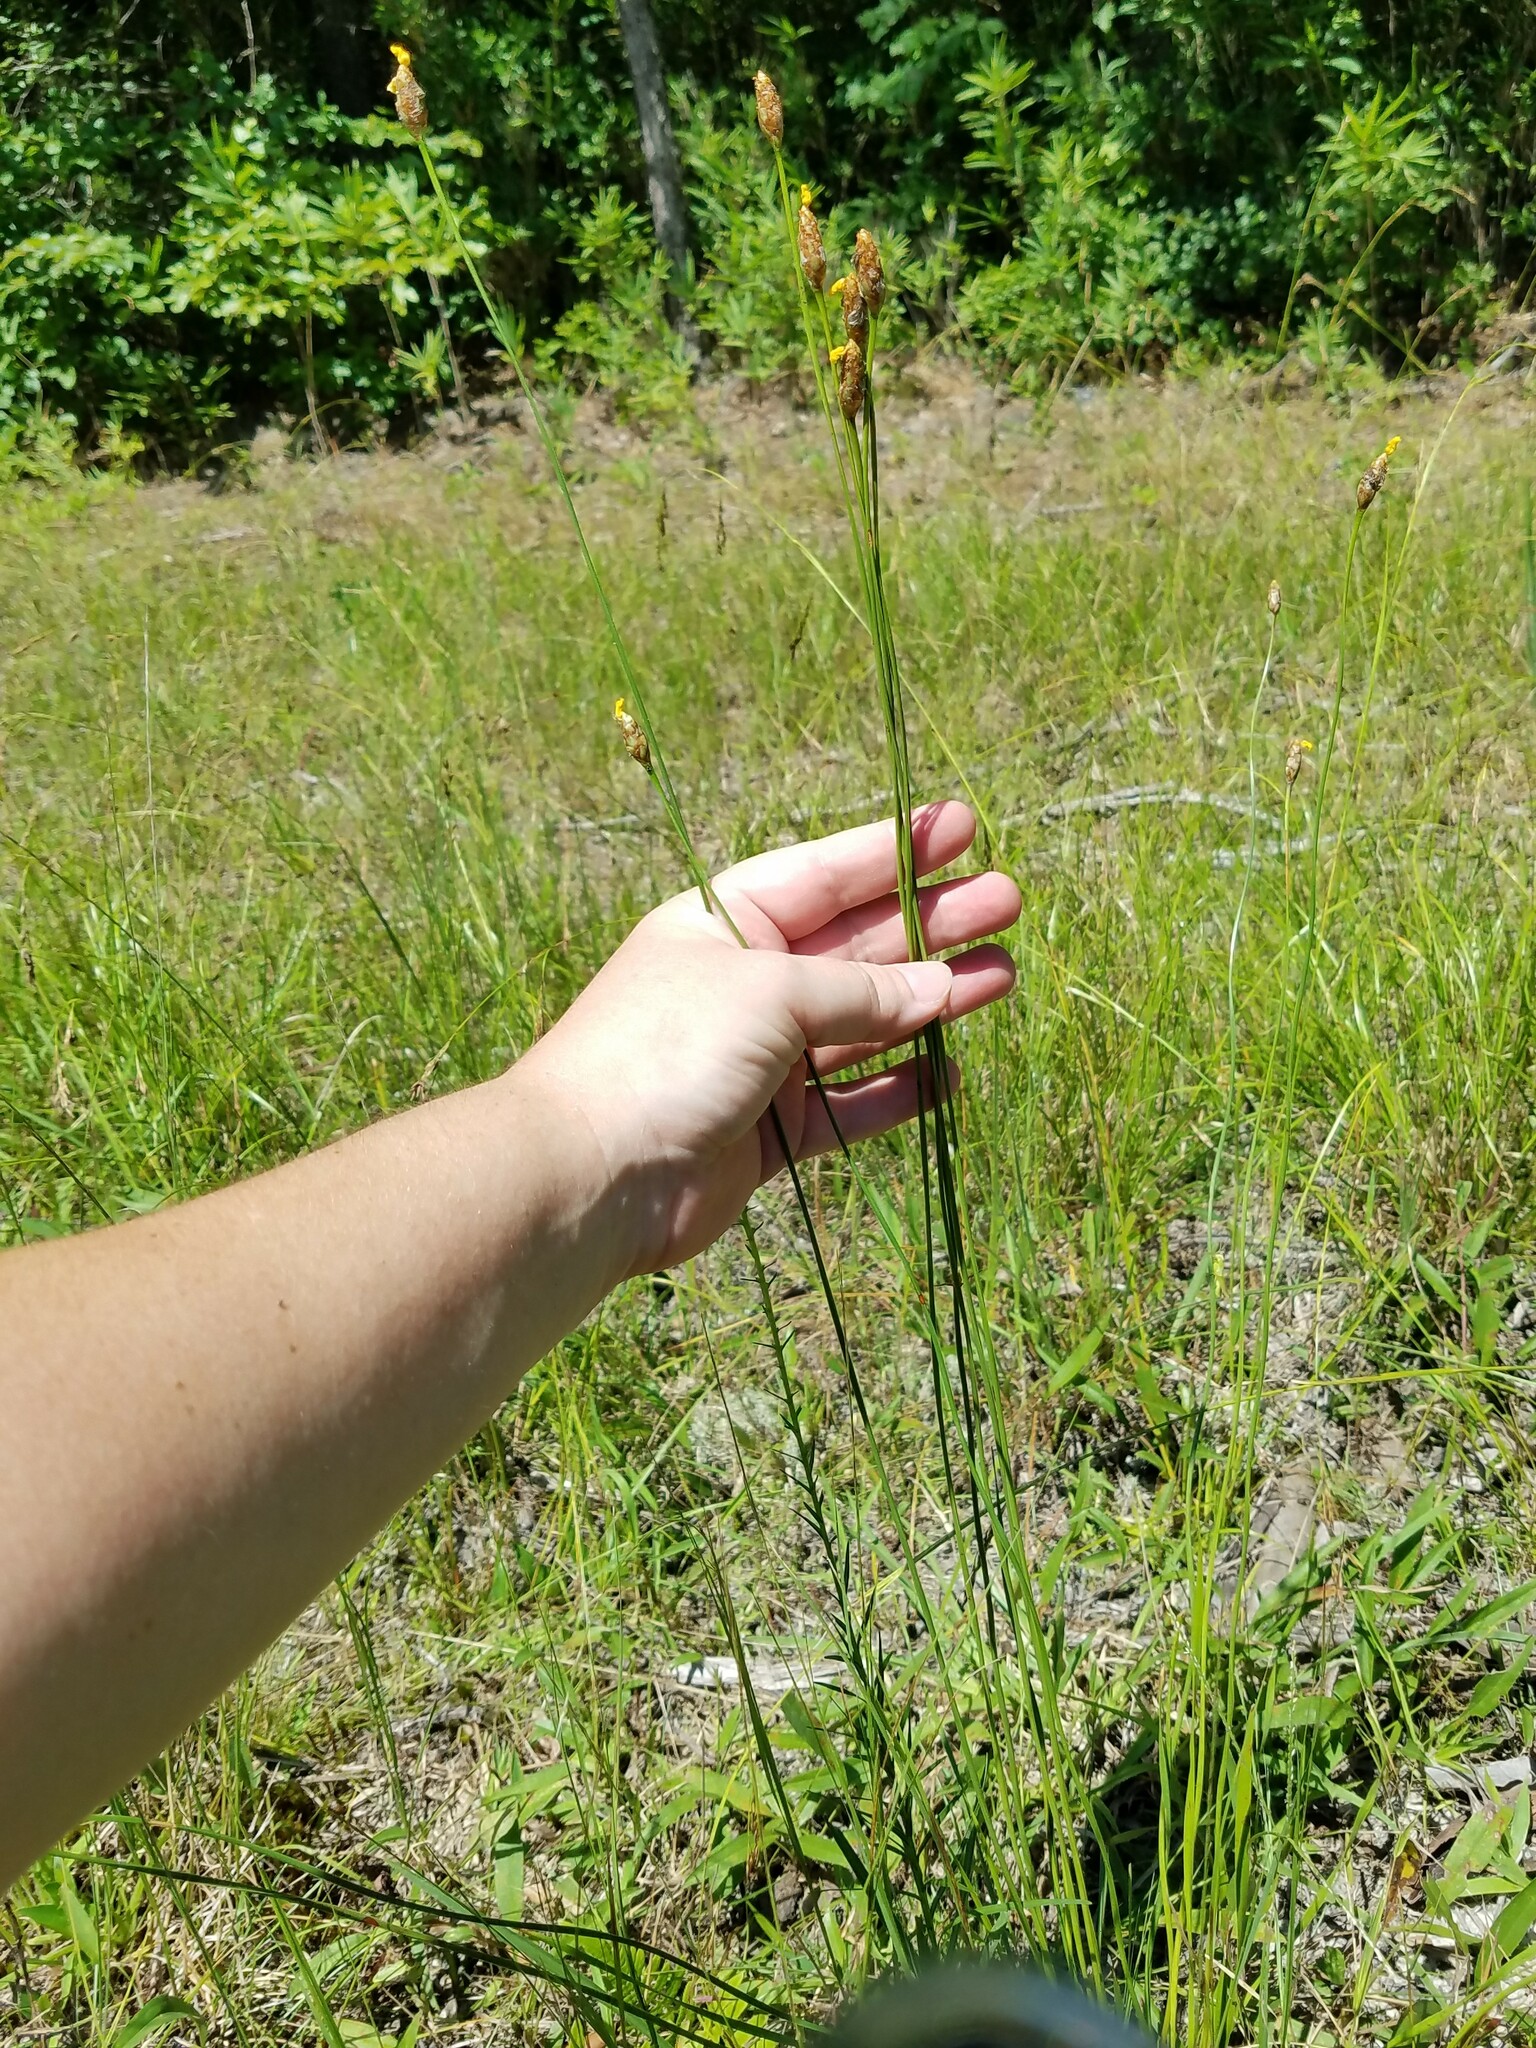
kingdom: Plantae
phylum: Tracheophyta
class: Liliopsida
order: Poales
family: Xyridaceae
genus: Xyris
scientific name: Xyris caroliniana
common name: Carolina yellow-eyed-grass
